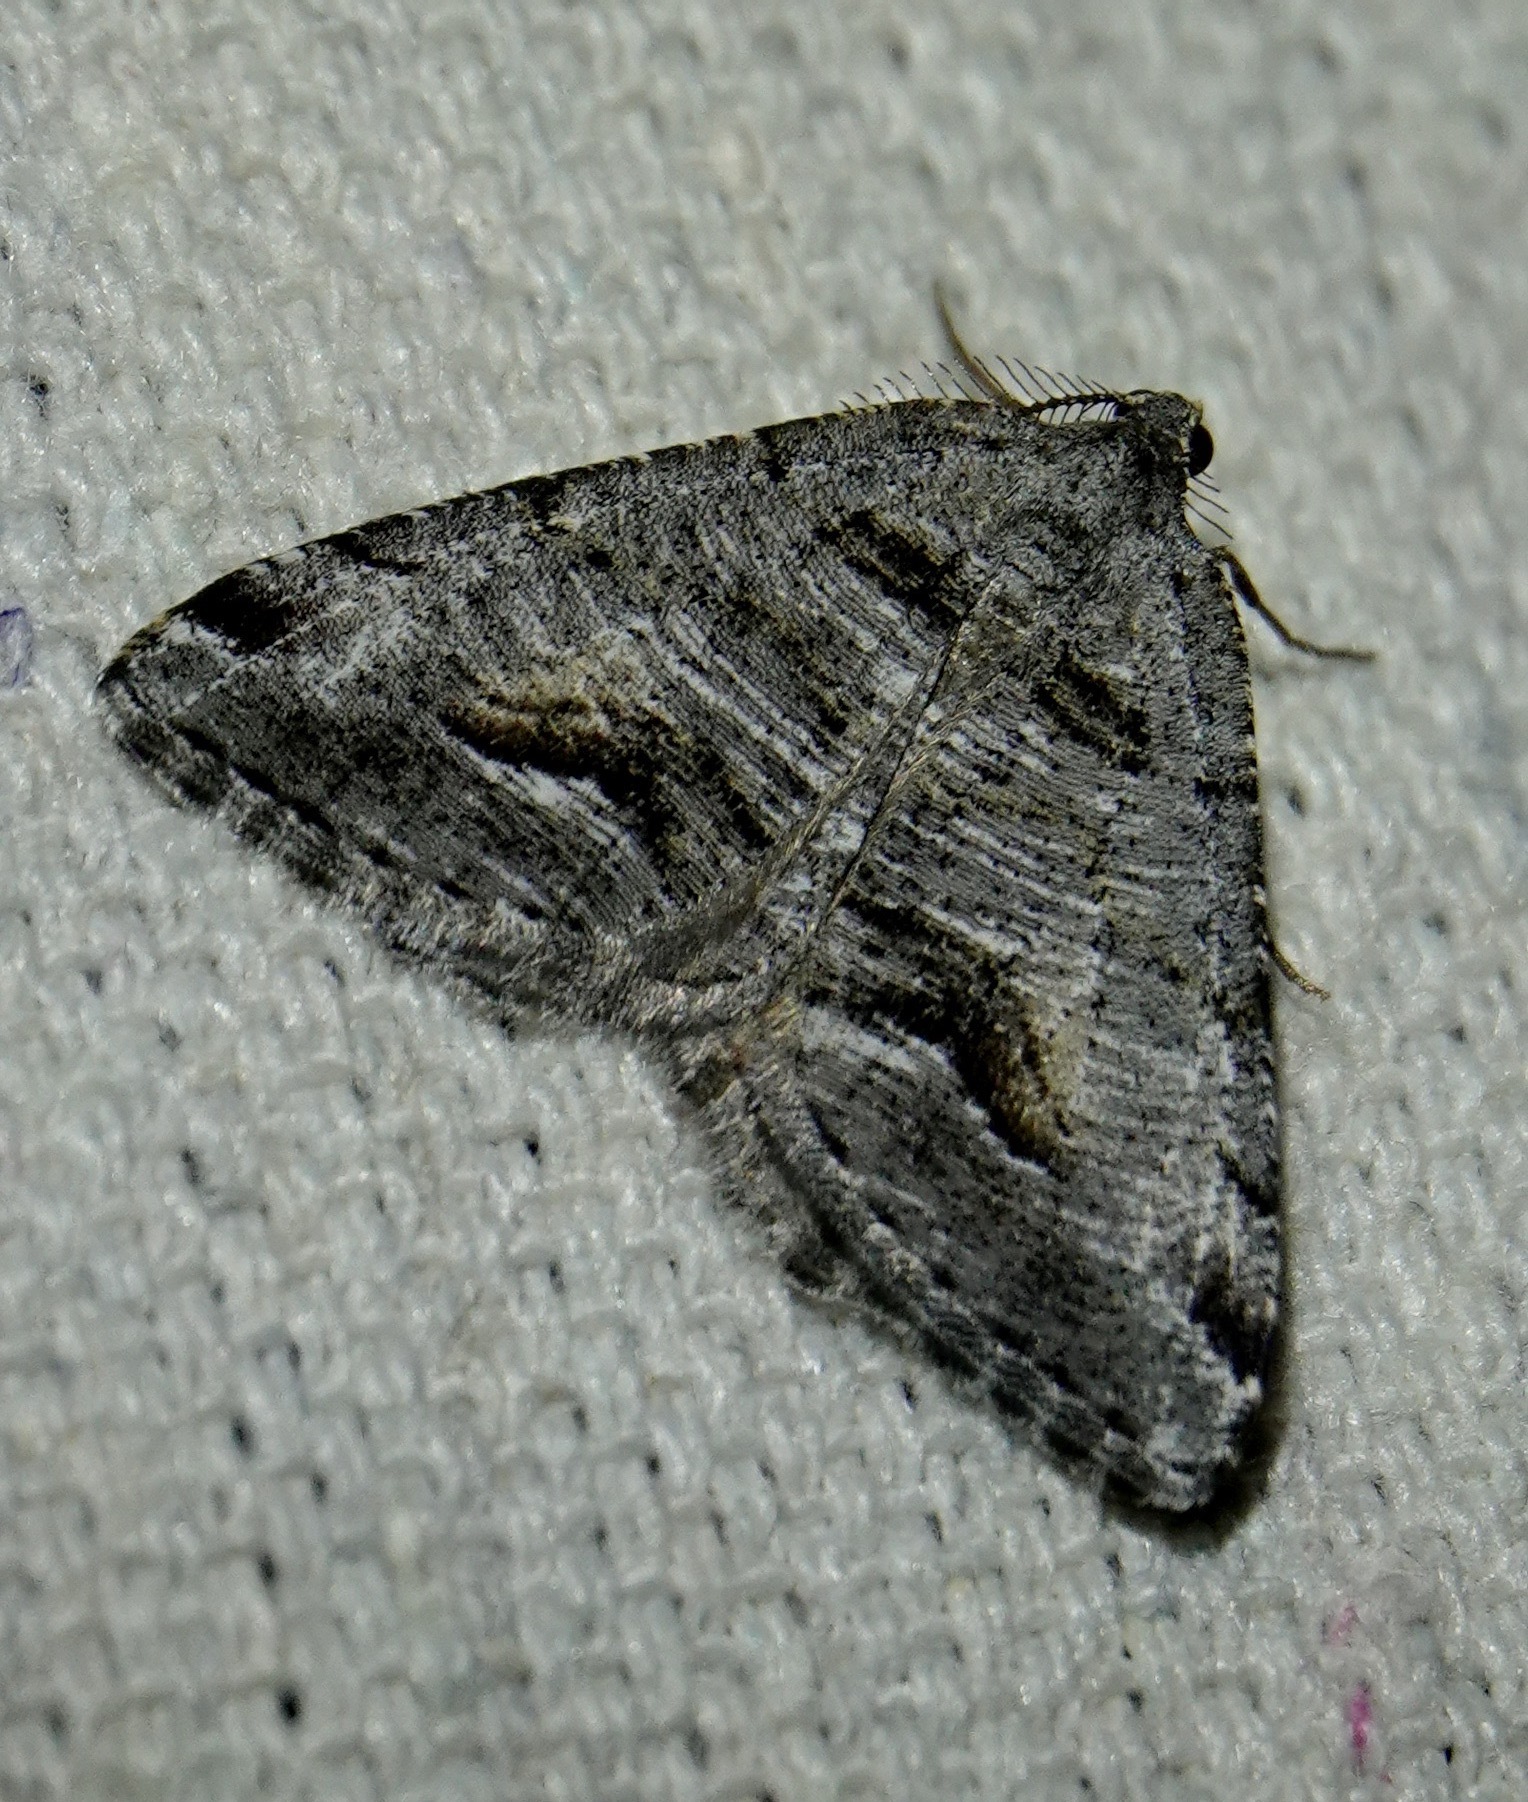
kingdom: Animalia
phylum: Arthropoda
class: Insecta
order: Lepidoptera
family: Geometridae
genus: Macaria
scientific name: Macaria colata
